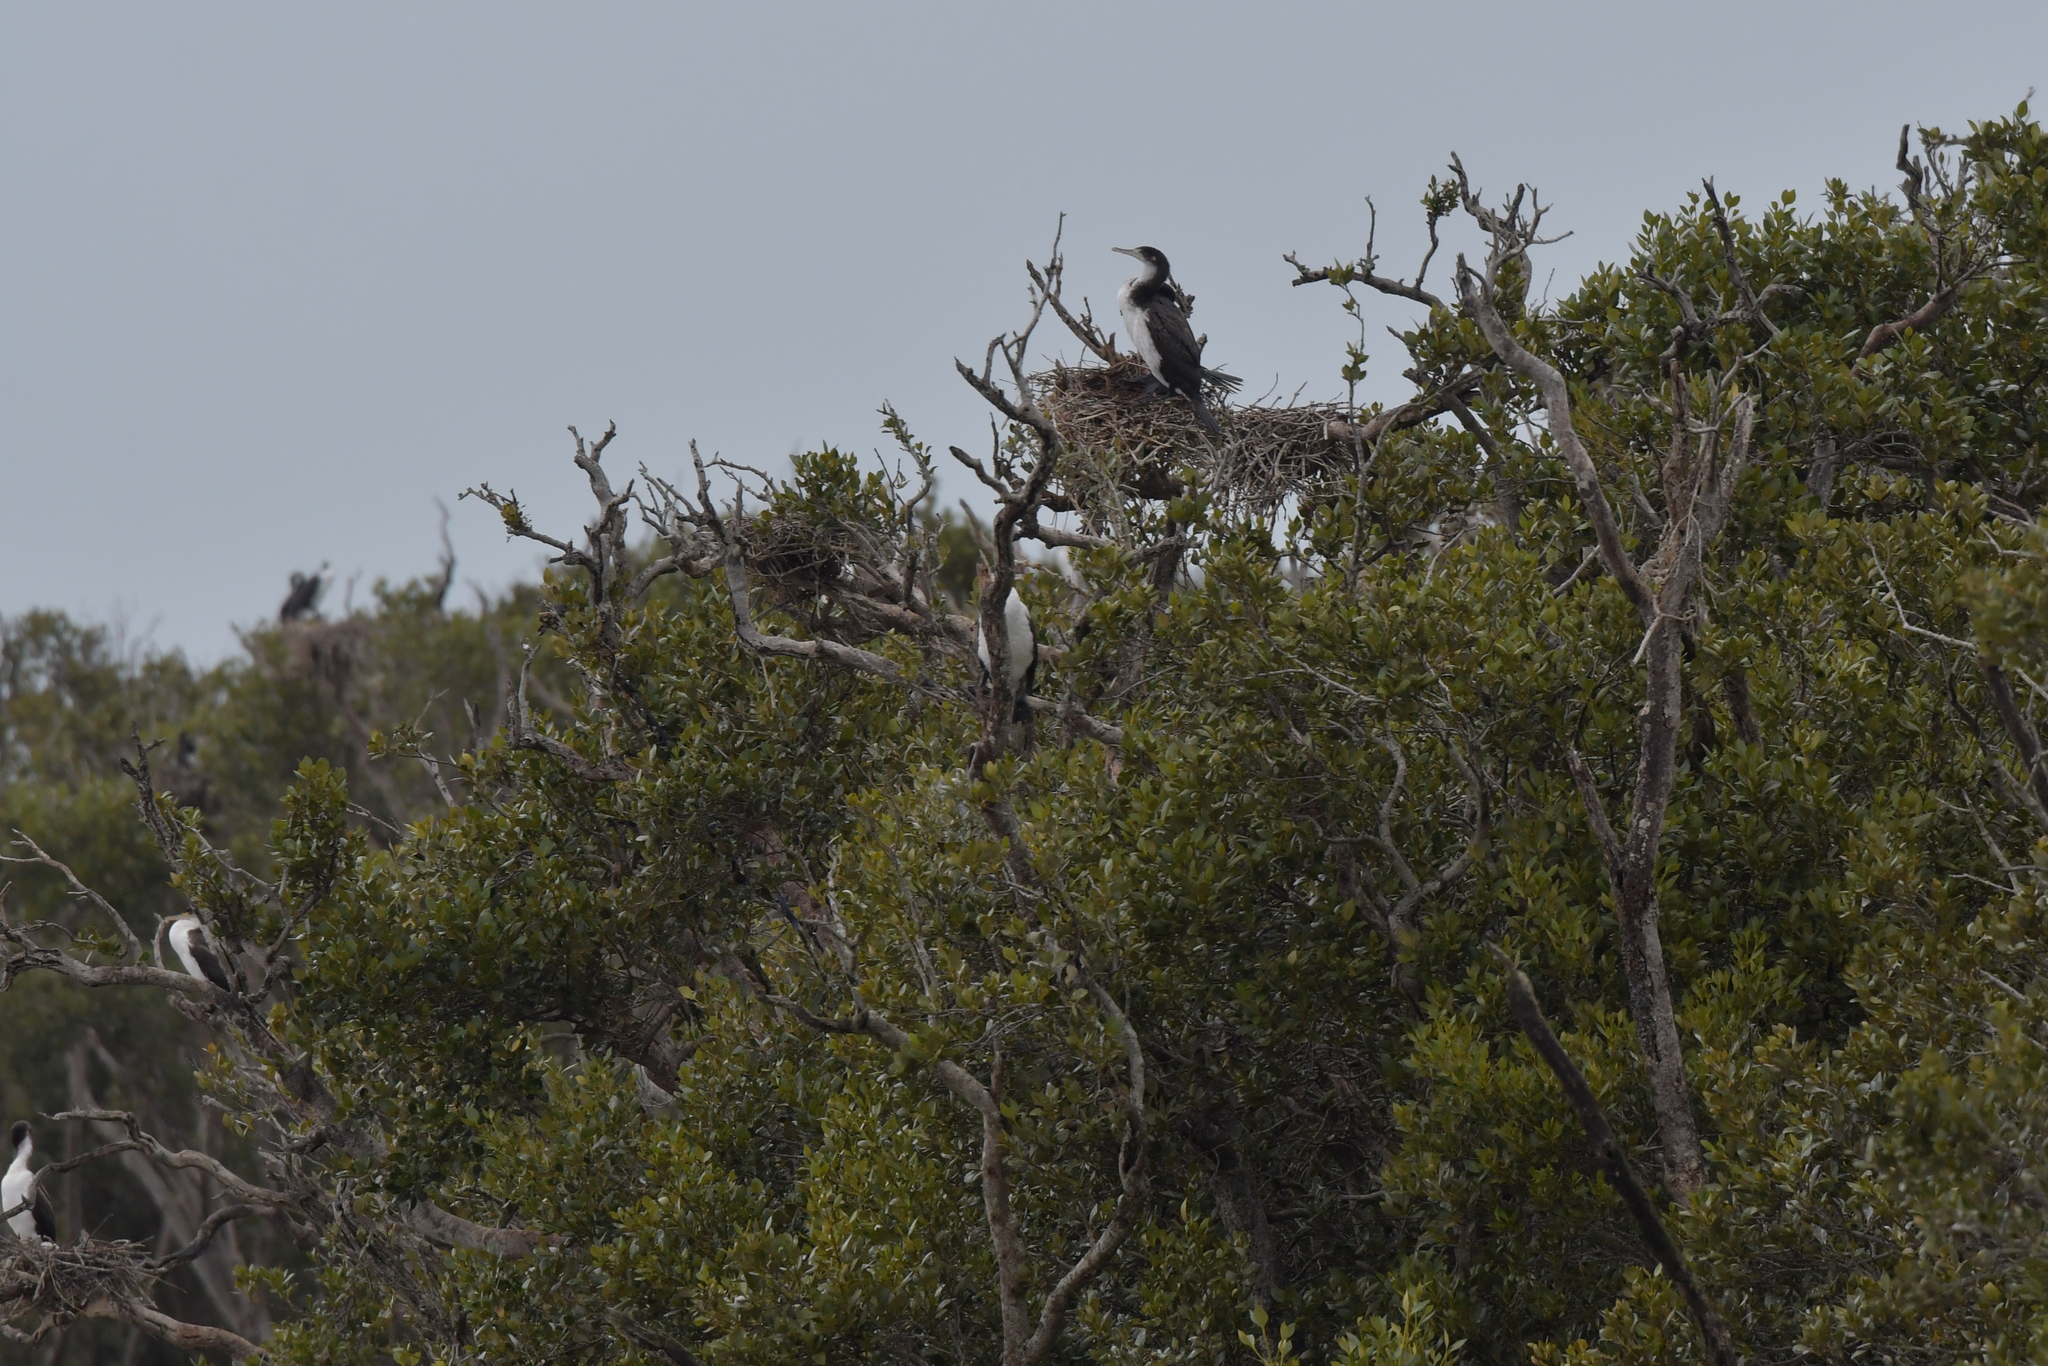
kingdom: Animalia
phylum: Chordata
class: Aves
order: Suliformes
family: Phalacrocoracidae
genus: Phalacrocorax
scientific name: Phalacrocorax varius
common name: Pied cormorant
